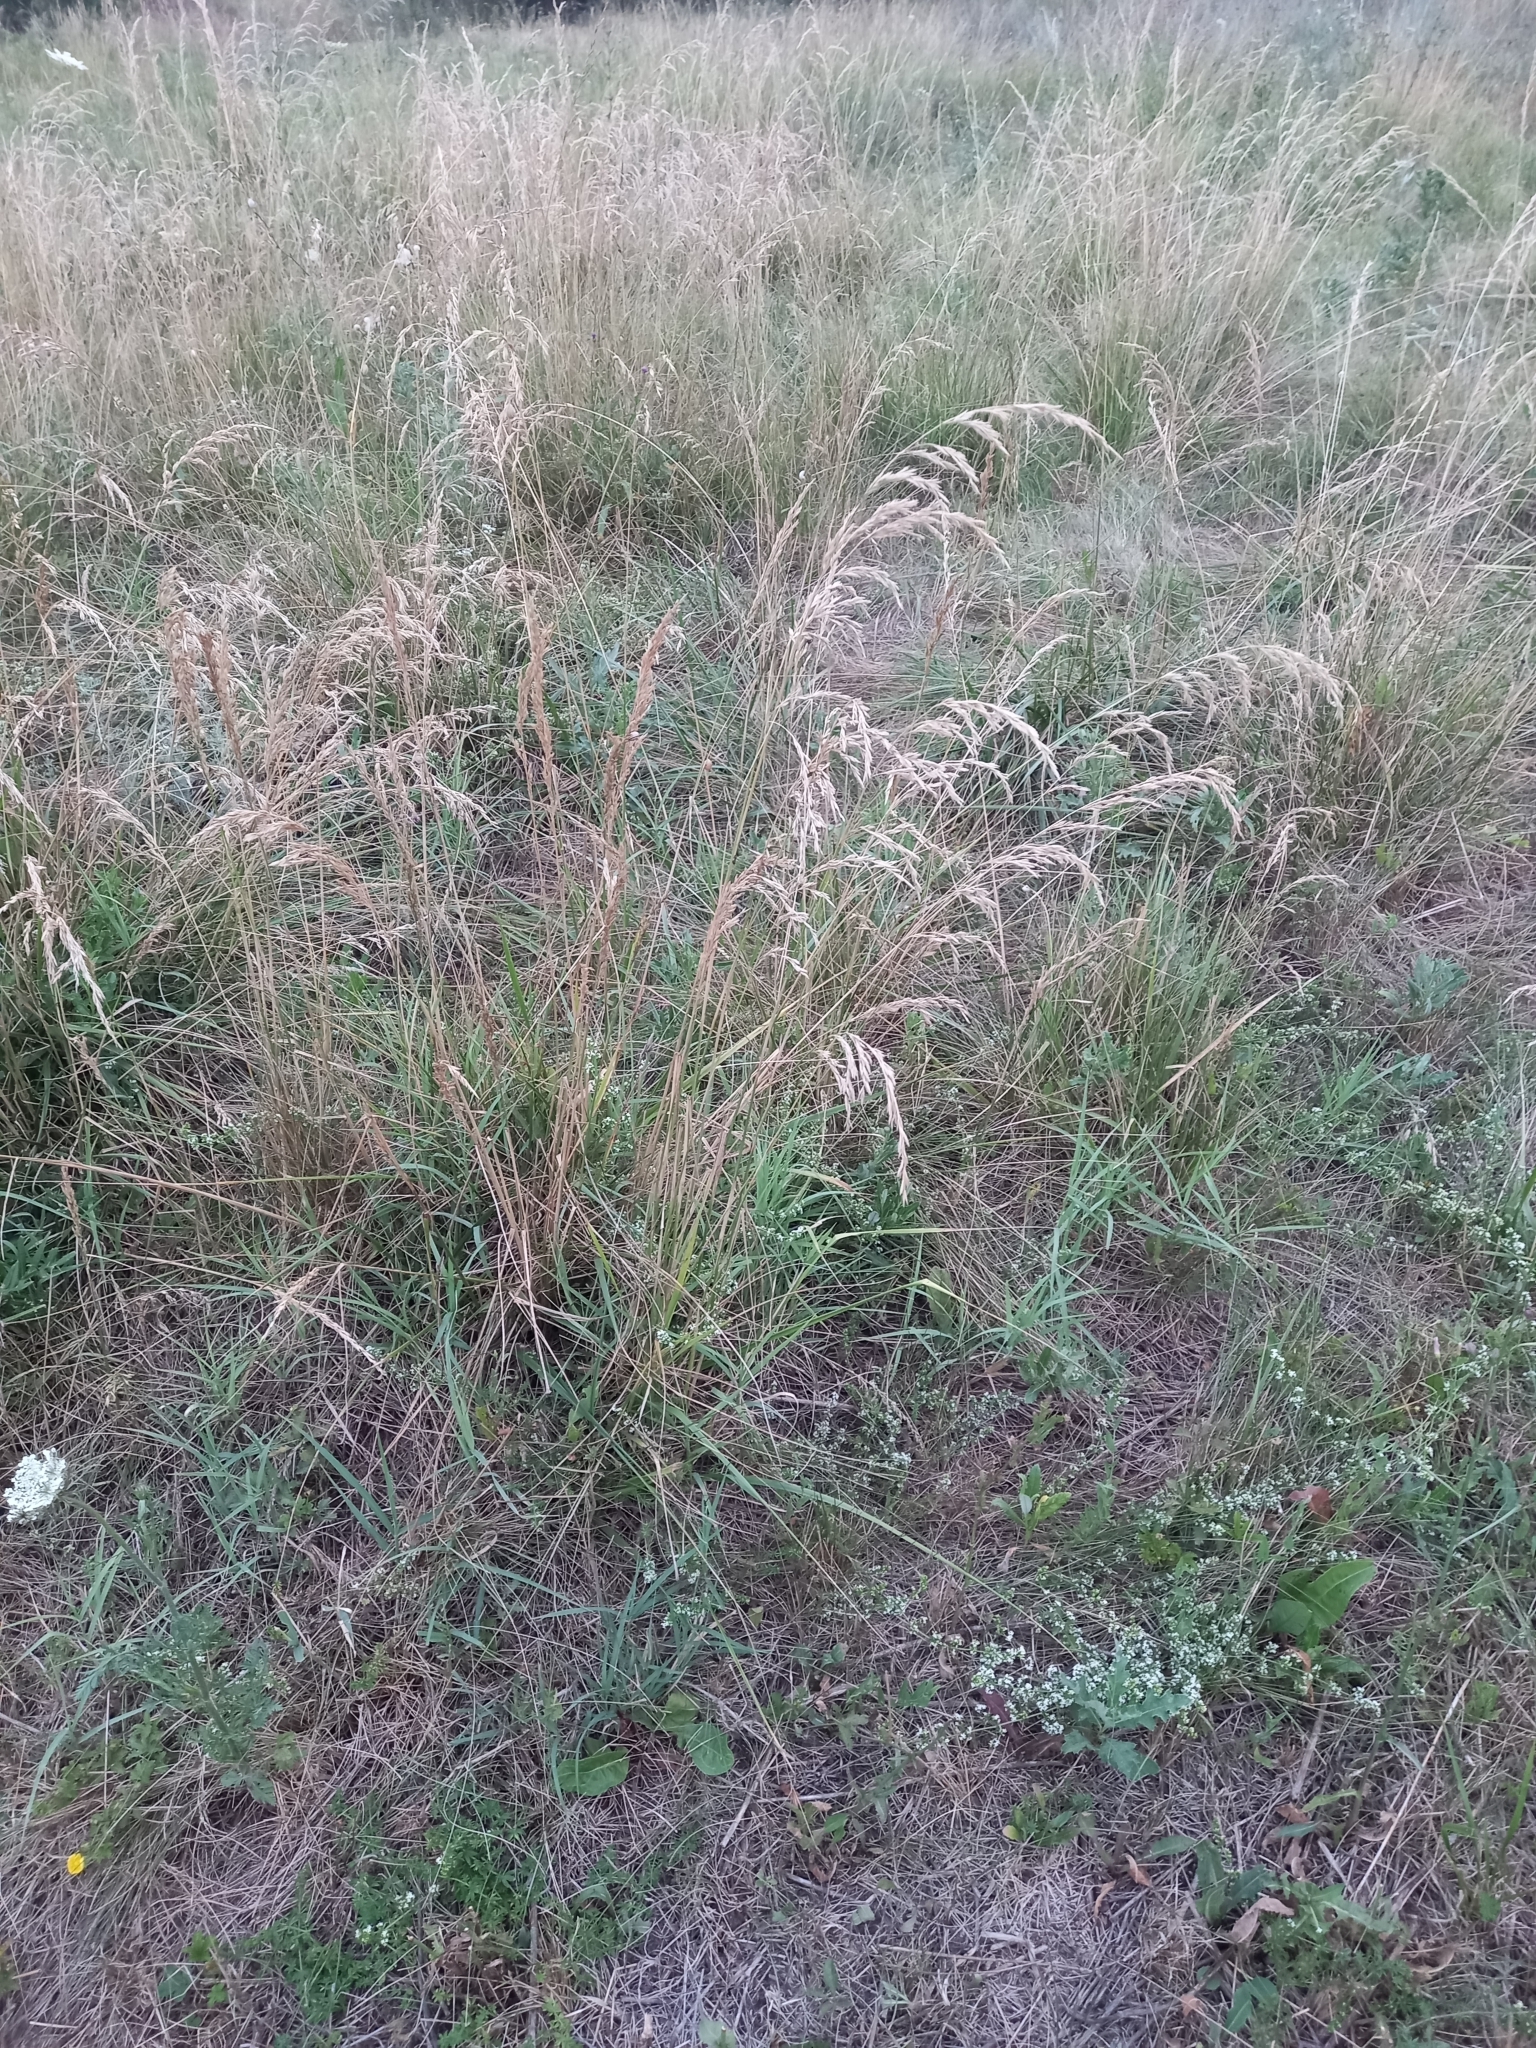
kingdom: Plantae
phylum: Tracheophyta
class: Liliopsida
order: Poales
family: Poaceae
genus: Lolium
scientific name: Lolium arundinaceum
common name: Reed fescue
